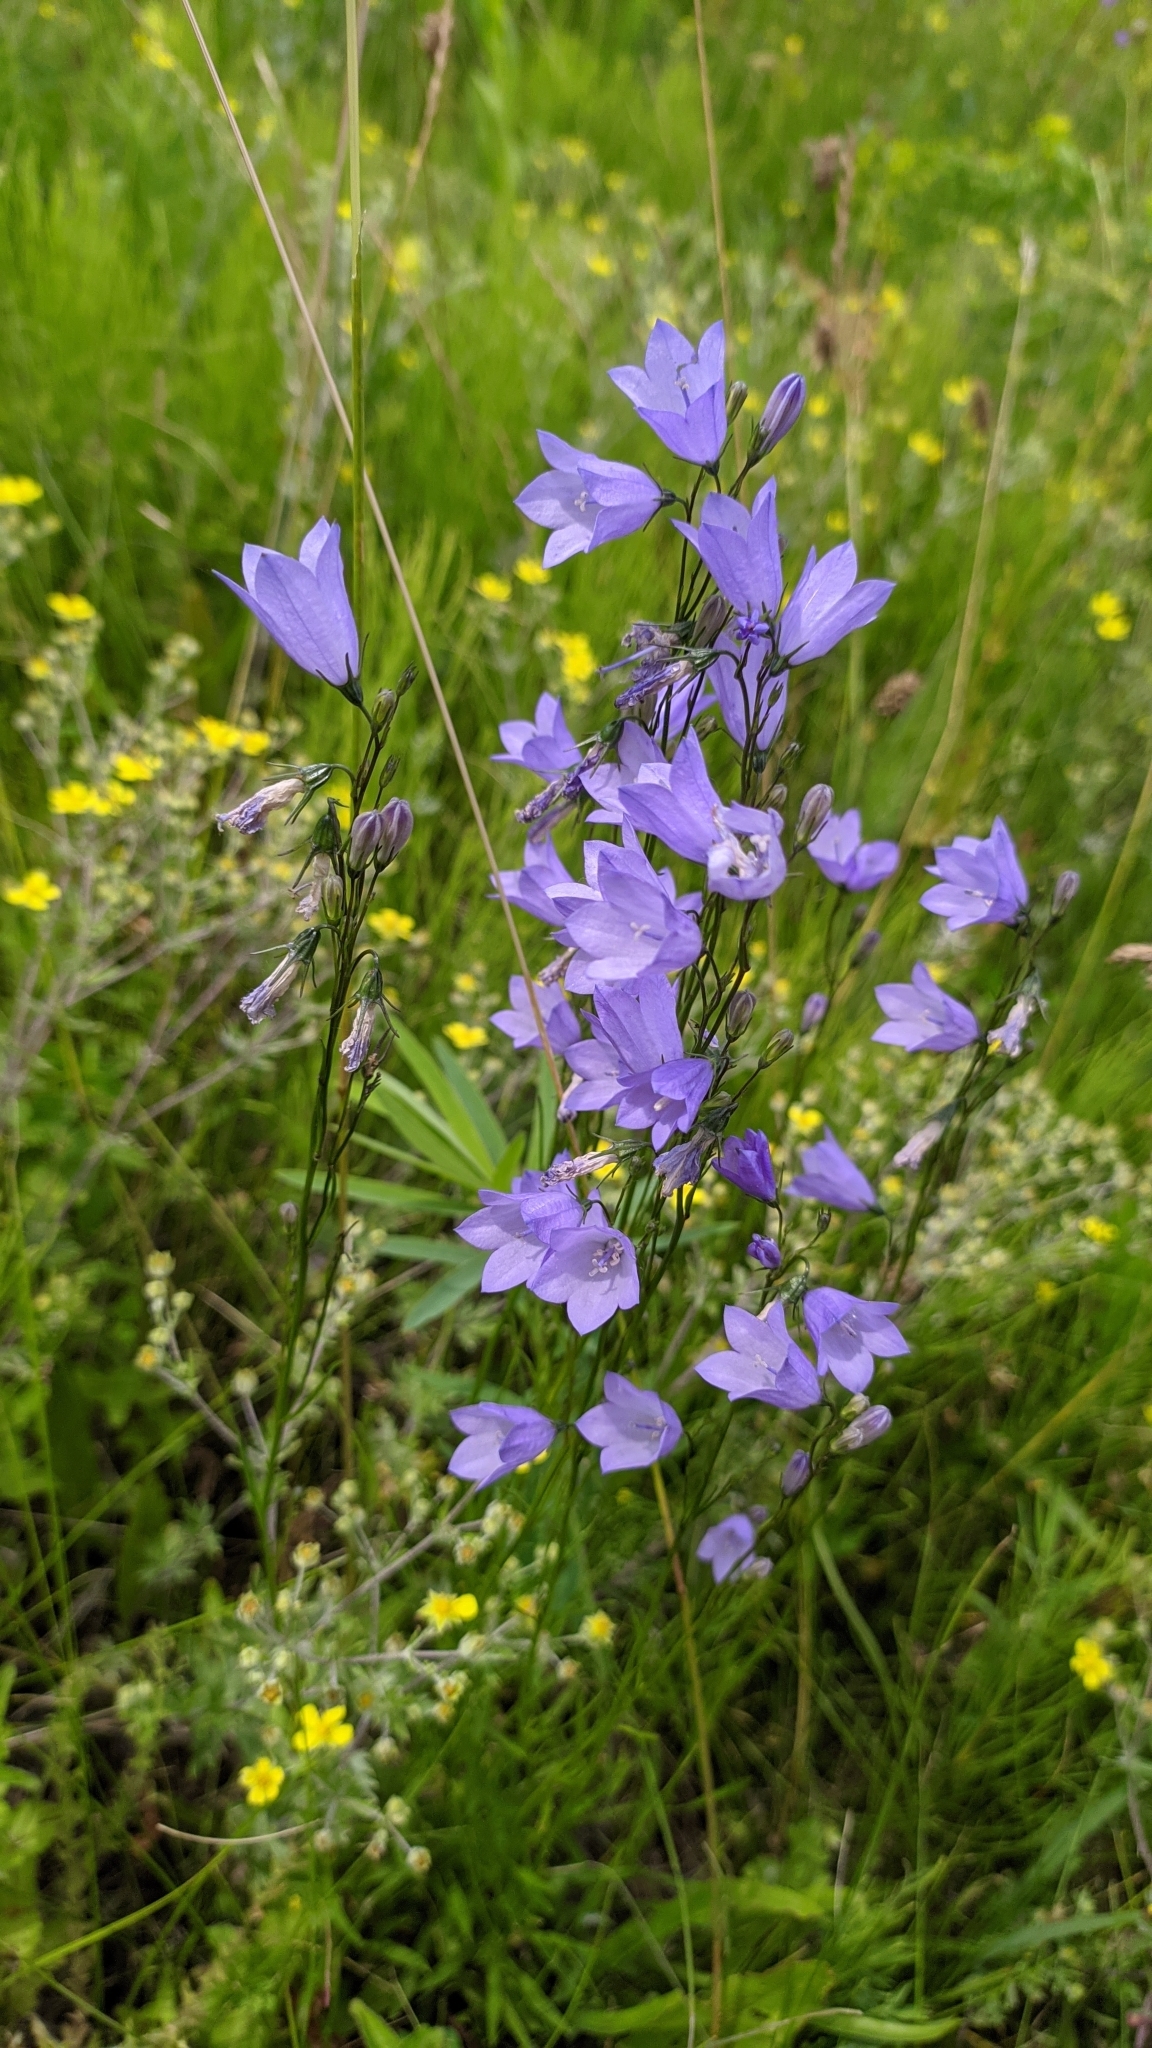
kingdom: Plantae
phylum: Tracheophyta
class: Magnoliopsida
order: Asterales
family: Campanulaceae
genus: Campanula
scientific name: Campanula rotundifolia
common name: Harebell
